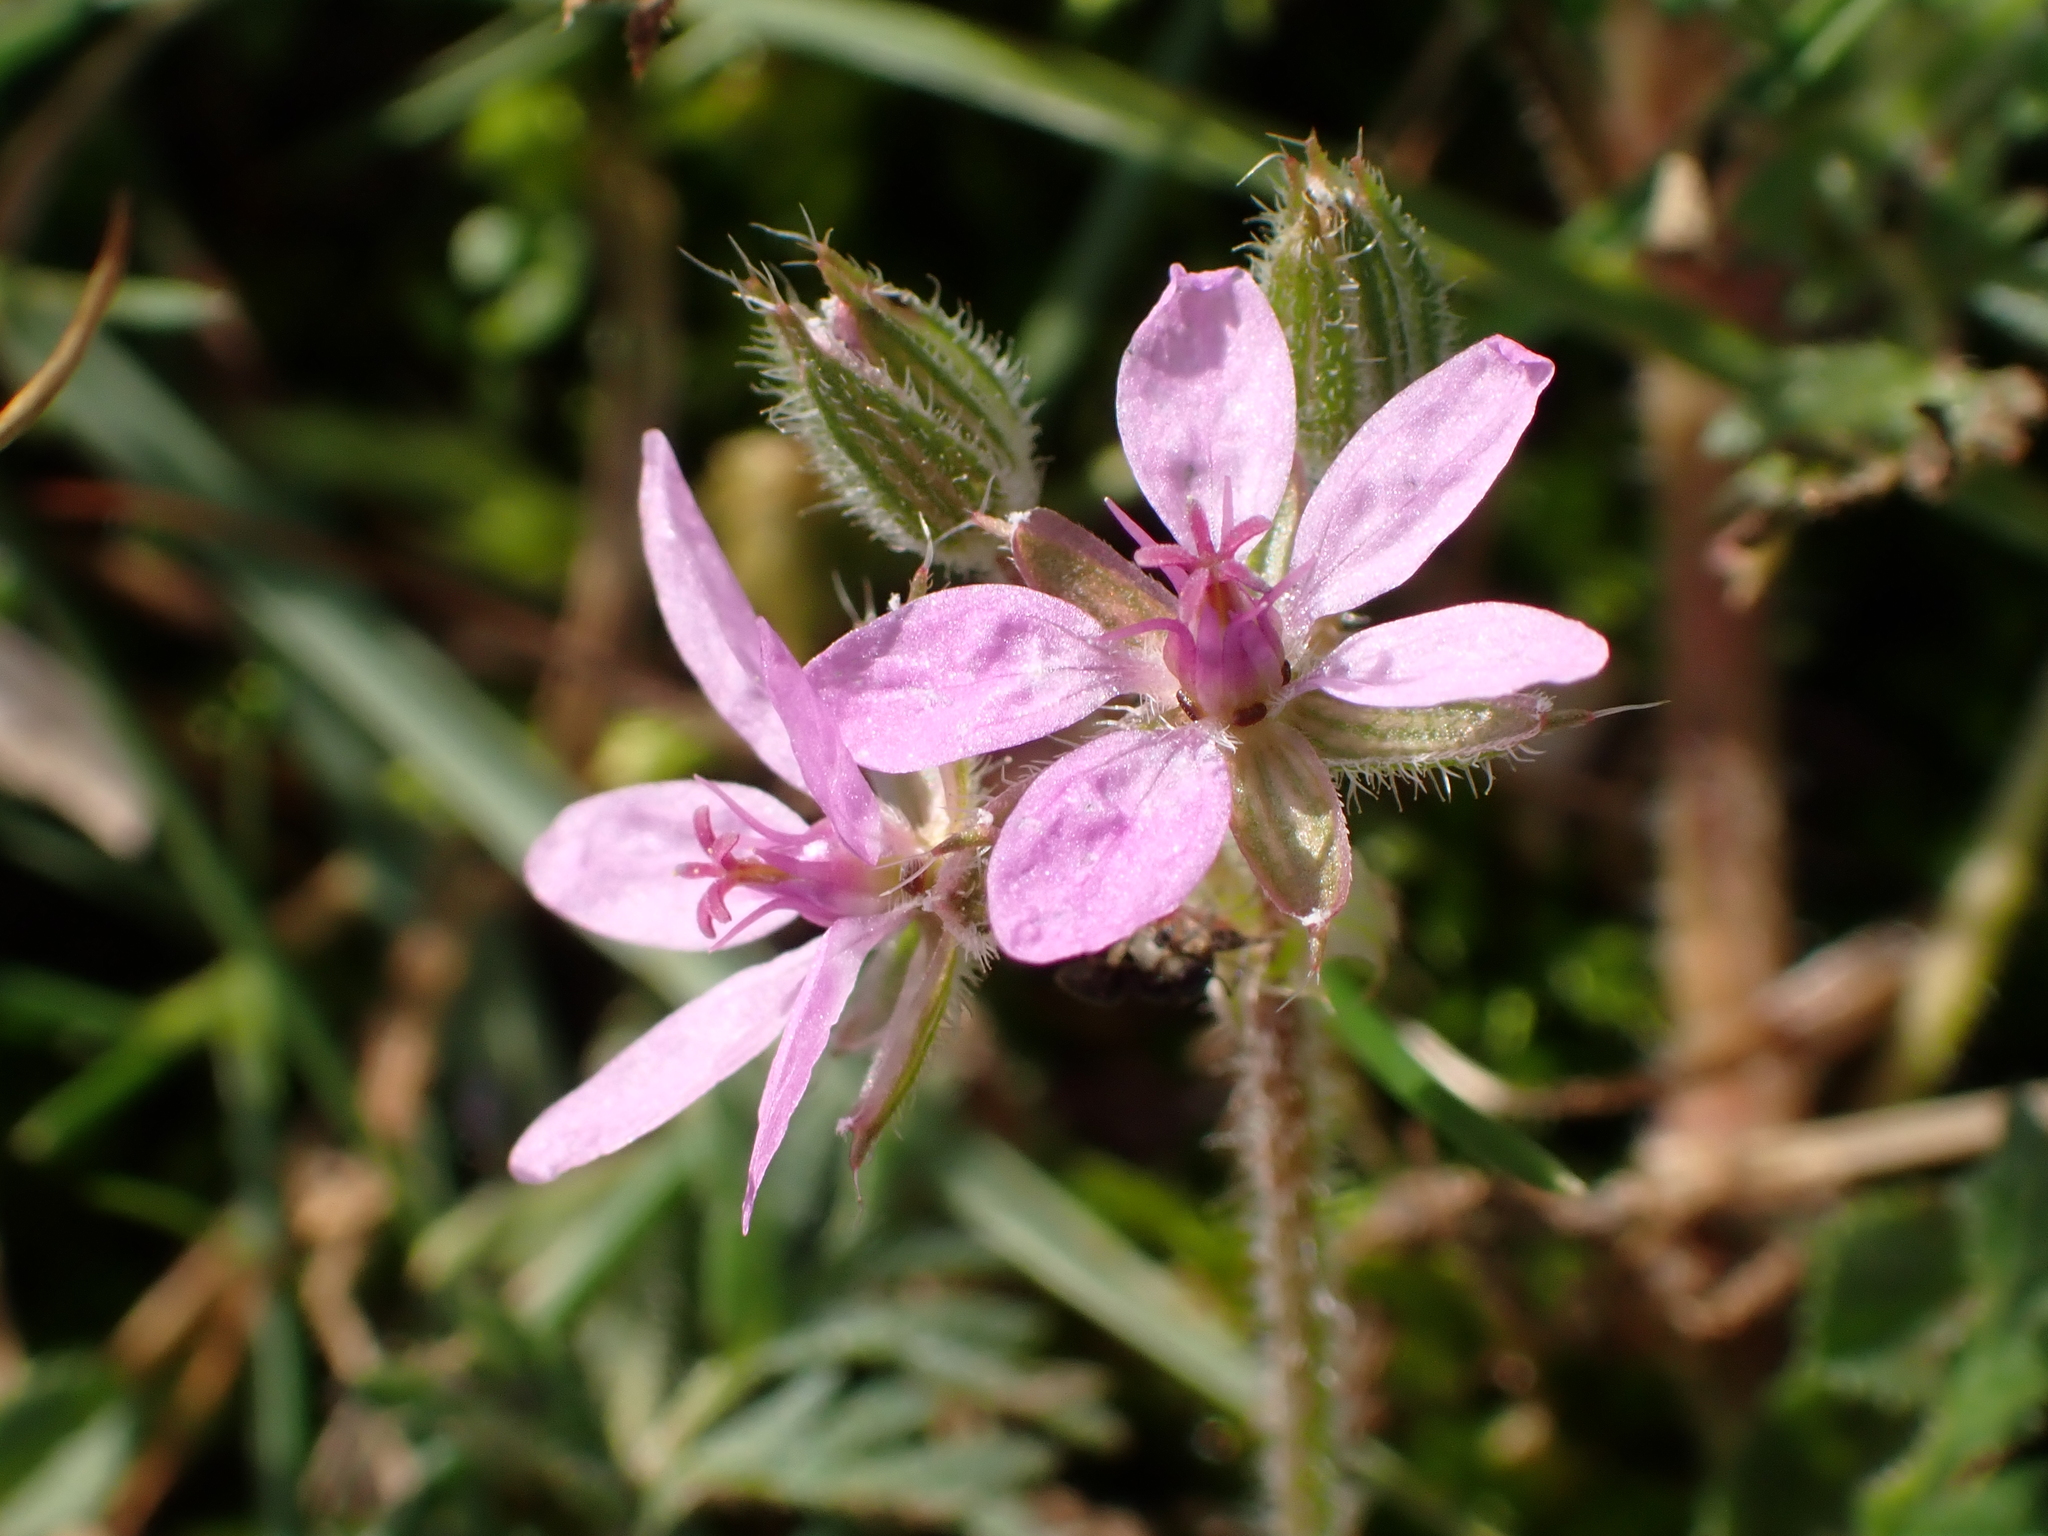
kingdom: Plantae
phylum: Tracheophyta
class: Magnoliopsida
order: Geraniales
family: Geraniaceae
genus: Erodium
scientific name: Erodium cicutarium
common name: Common stork's-bill
